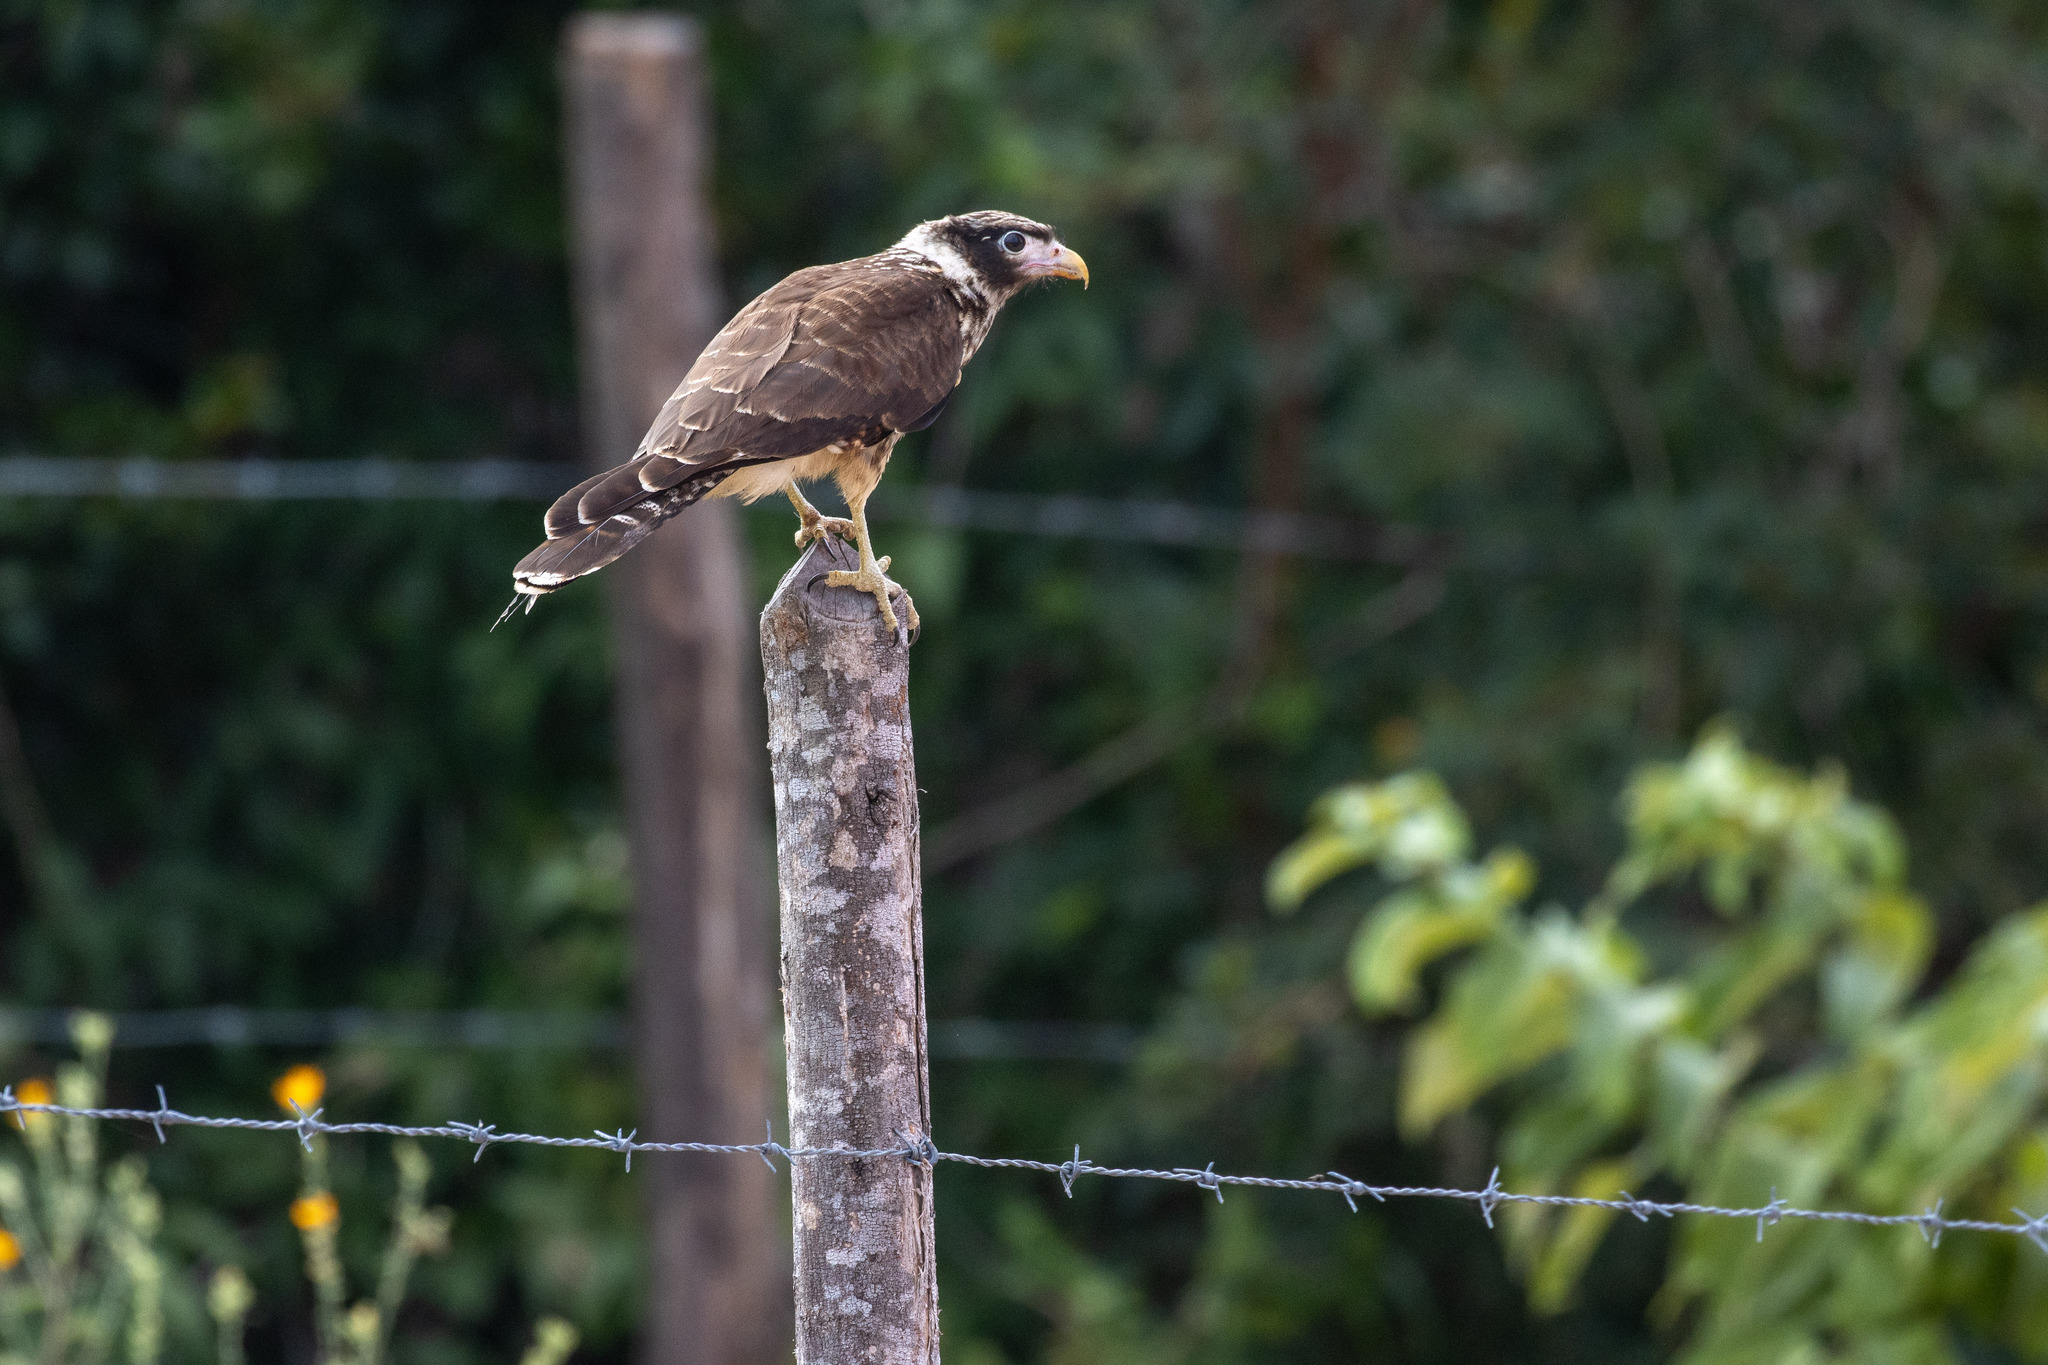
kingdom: Animalia
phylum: Chordata
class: Aves
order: Falconiformes
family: Falconidae
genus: Daptrius
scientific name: Daptrius
